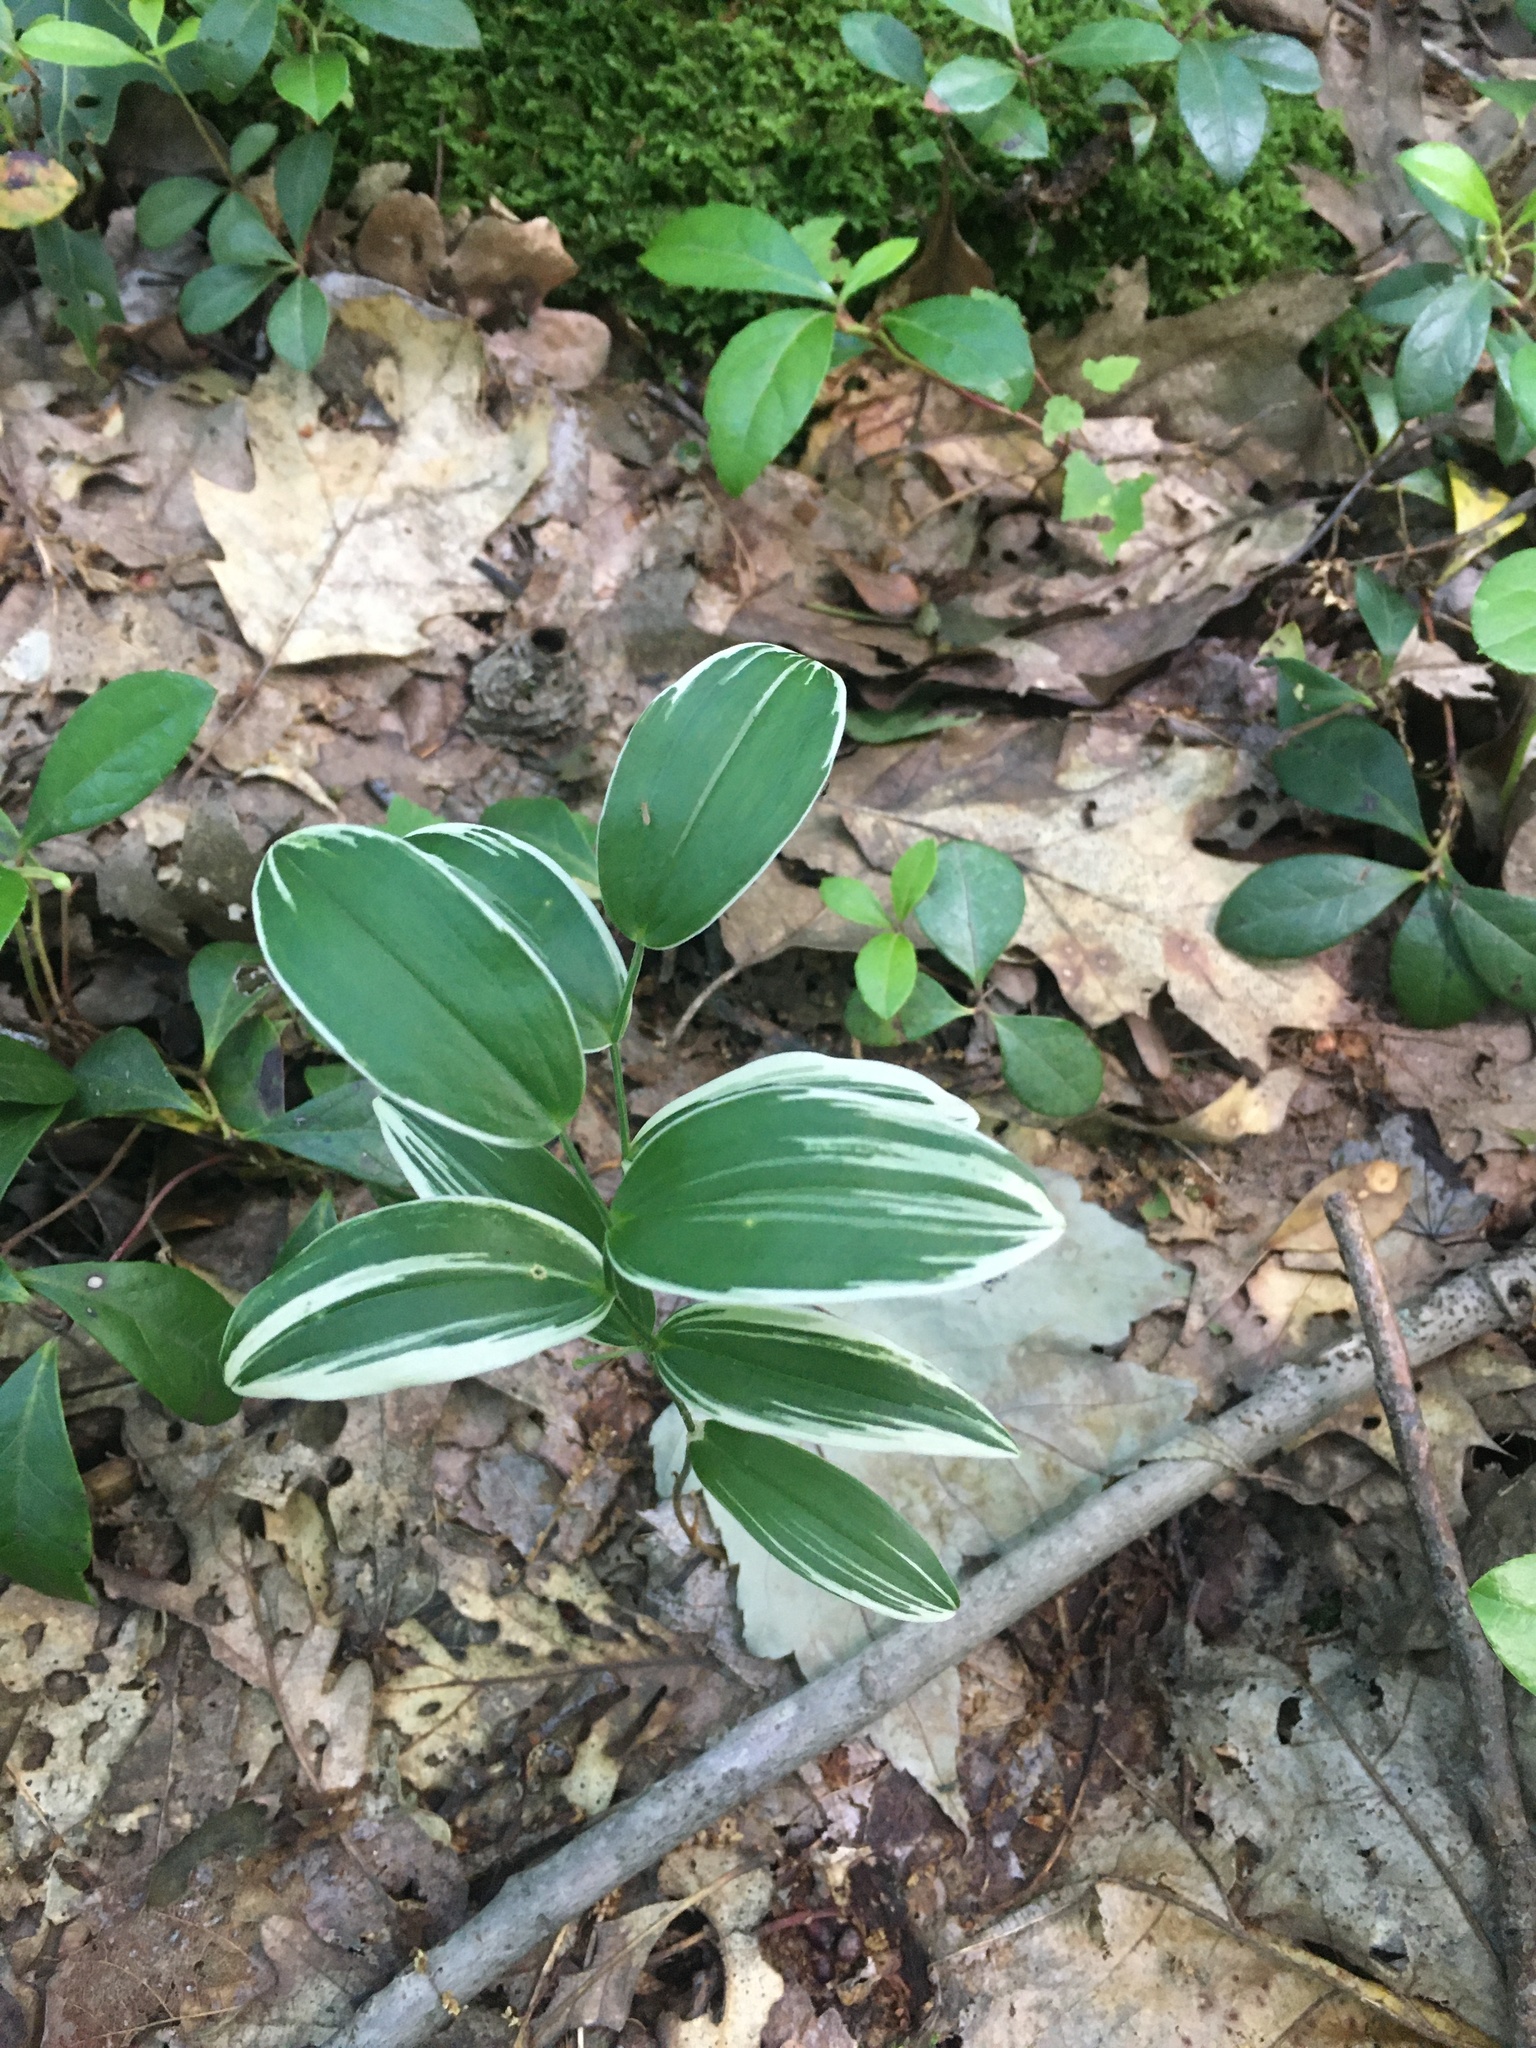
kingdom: Plantae
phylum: Tracheophyta
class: Liliopsida
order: Liliales
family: Colchicaceae
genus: Uvularia
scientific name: Uvularia puberula
